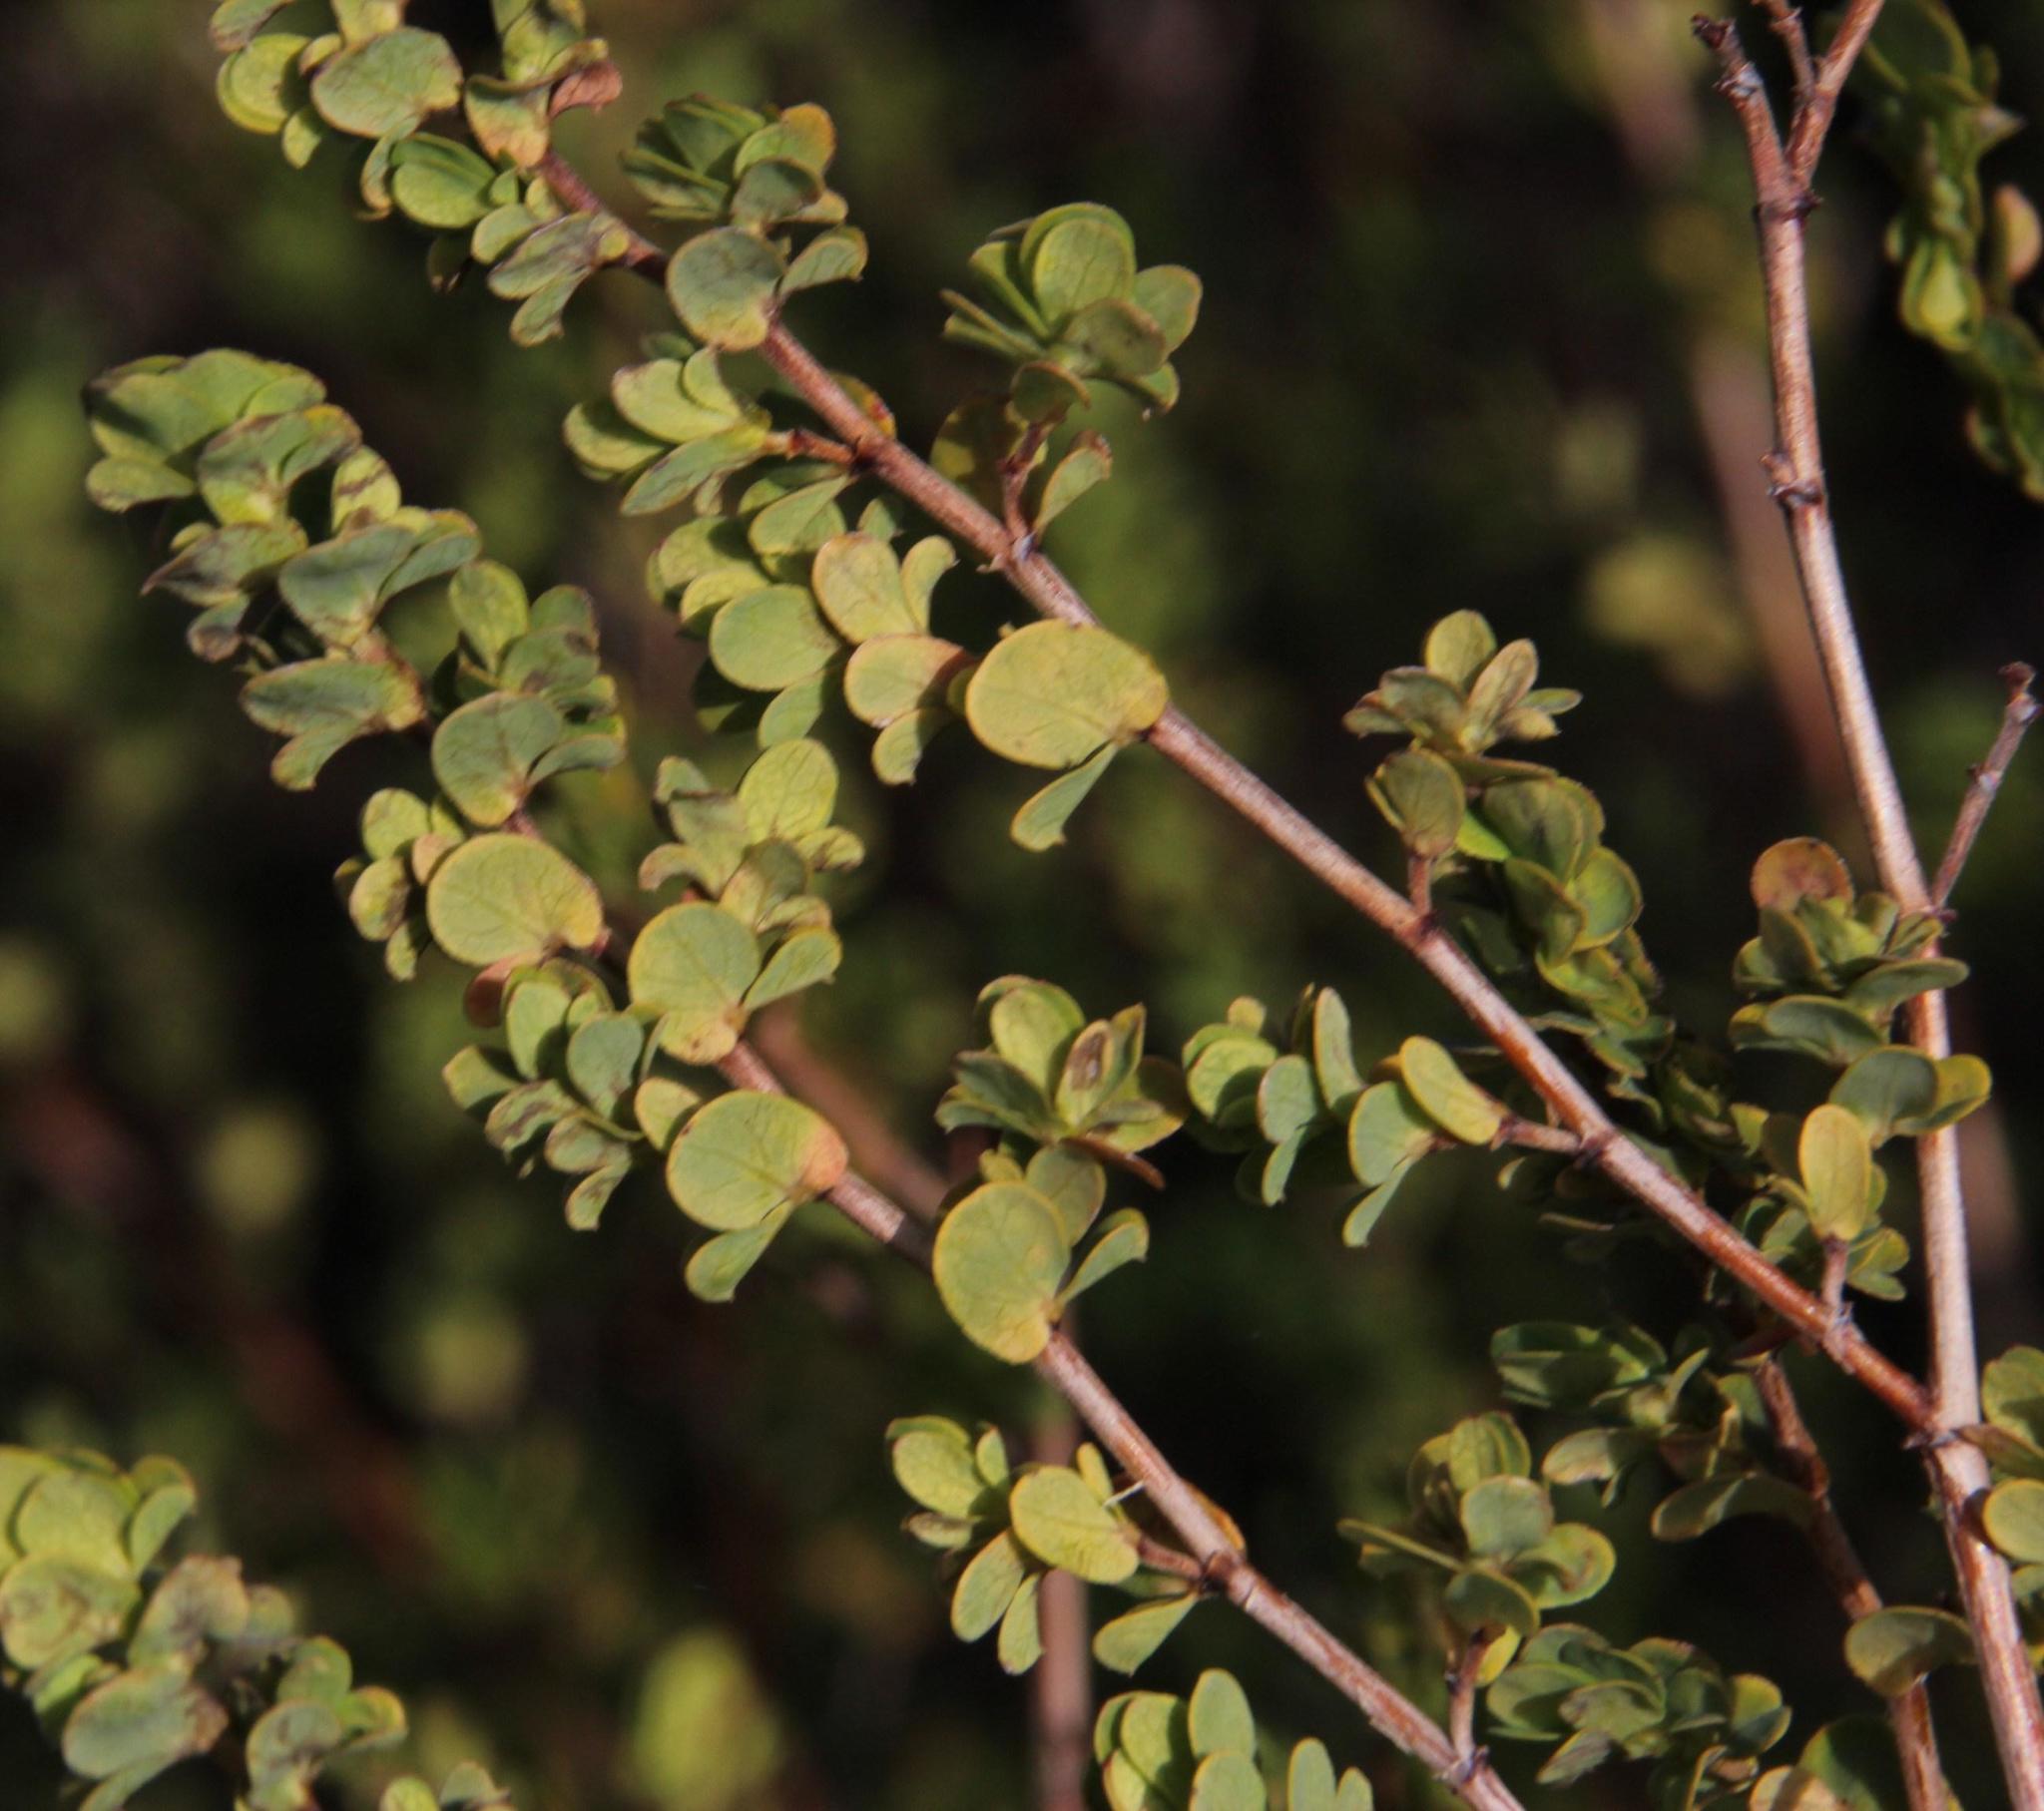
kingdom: Plantae
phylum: Tracheophyta
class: Magnoliopsida
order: Rosales
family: Rosaceae
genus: Cliffortia
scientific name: Cliffortia obcordata
